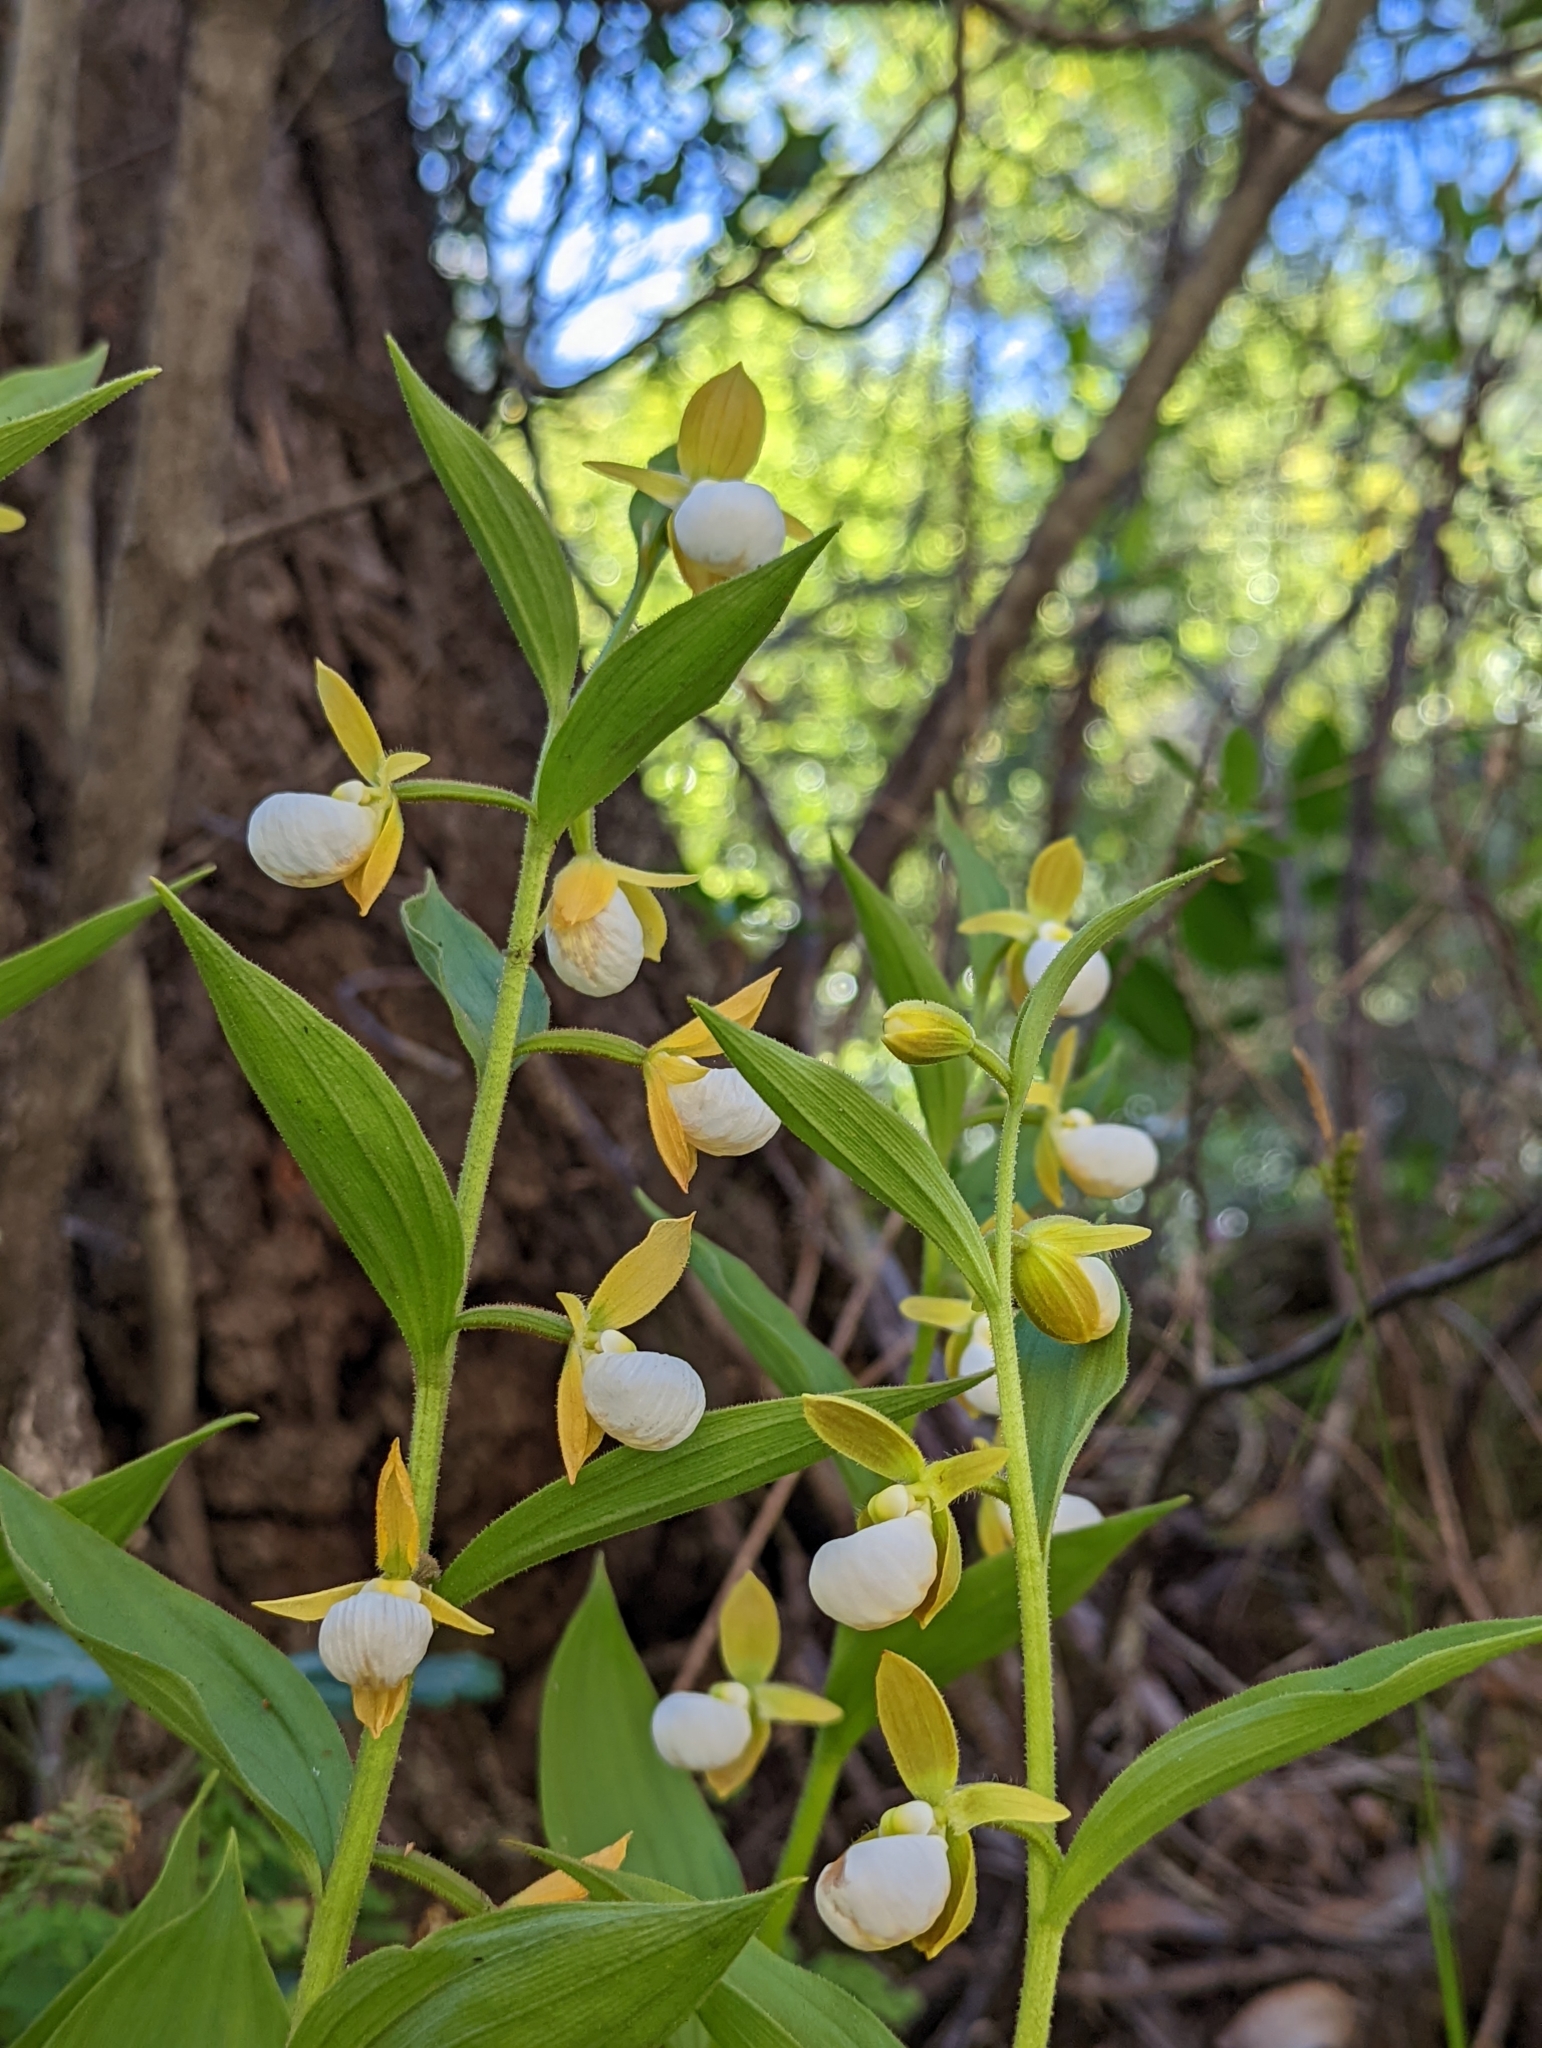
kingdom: Plantae
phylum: Tracheophyta
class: Liliopsida
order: Asparagales
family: Orchidaceae
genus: Cypripedium
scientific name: Cypripedium californicum
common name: California lady's slipper
